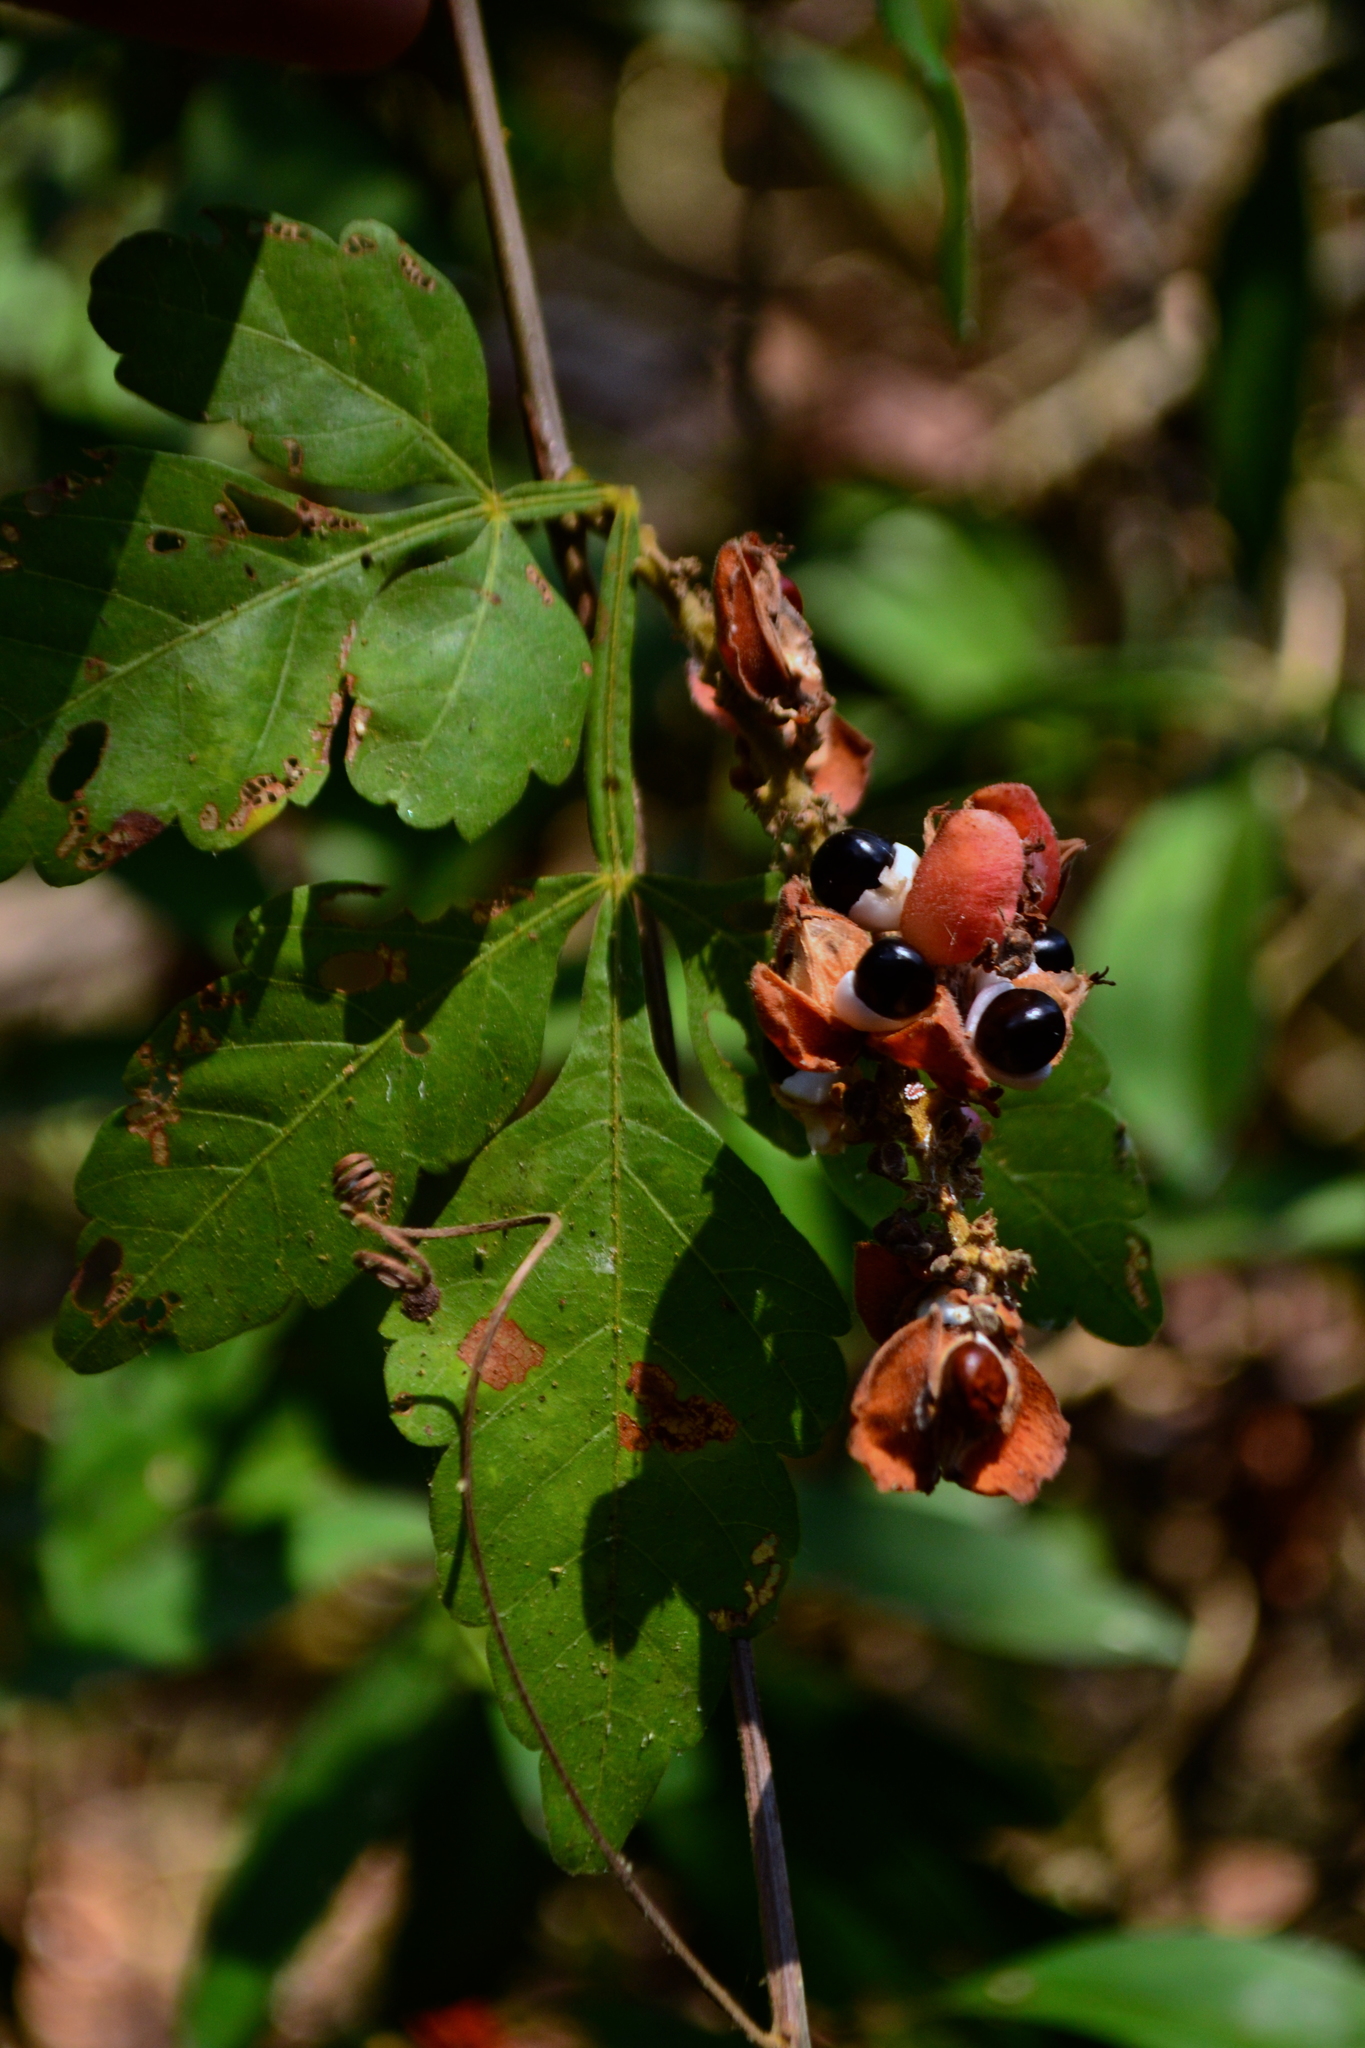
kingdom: Plantae
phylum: Tracheophyta
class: Magnoliopsida
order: Sapindales
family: Sapindaceae
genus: Paullinia
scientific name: Paullinia clavigera
